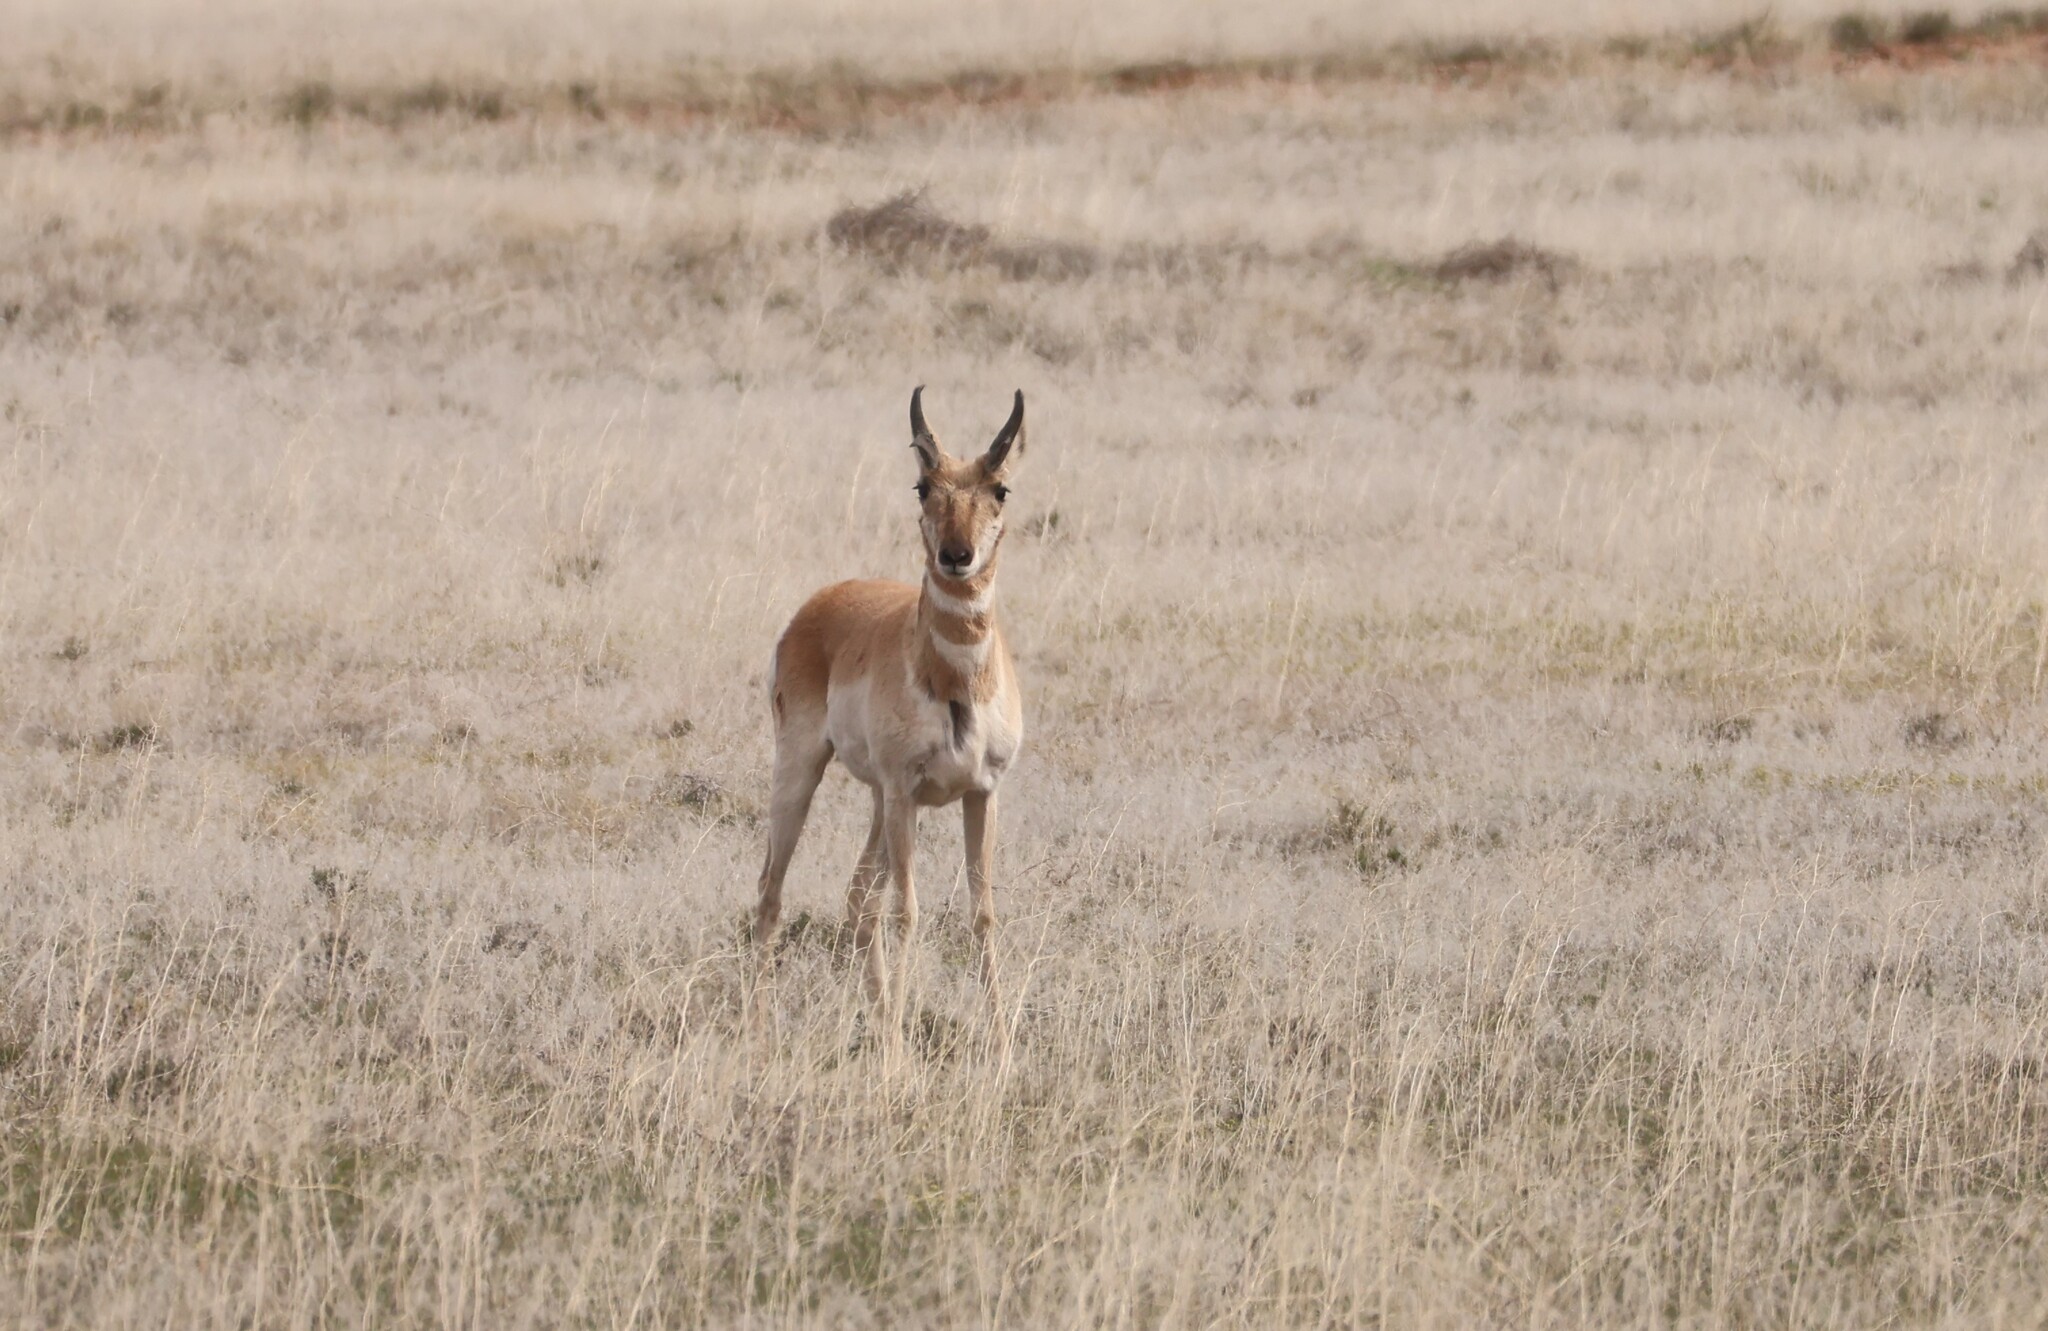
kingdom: Animalia
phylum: Chordata
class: Mammalia
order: Artiodactyla
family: Antilocapridae
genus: Antilocapra
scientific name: Antilocapra americana
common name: Pronghorn
